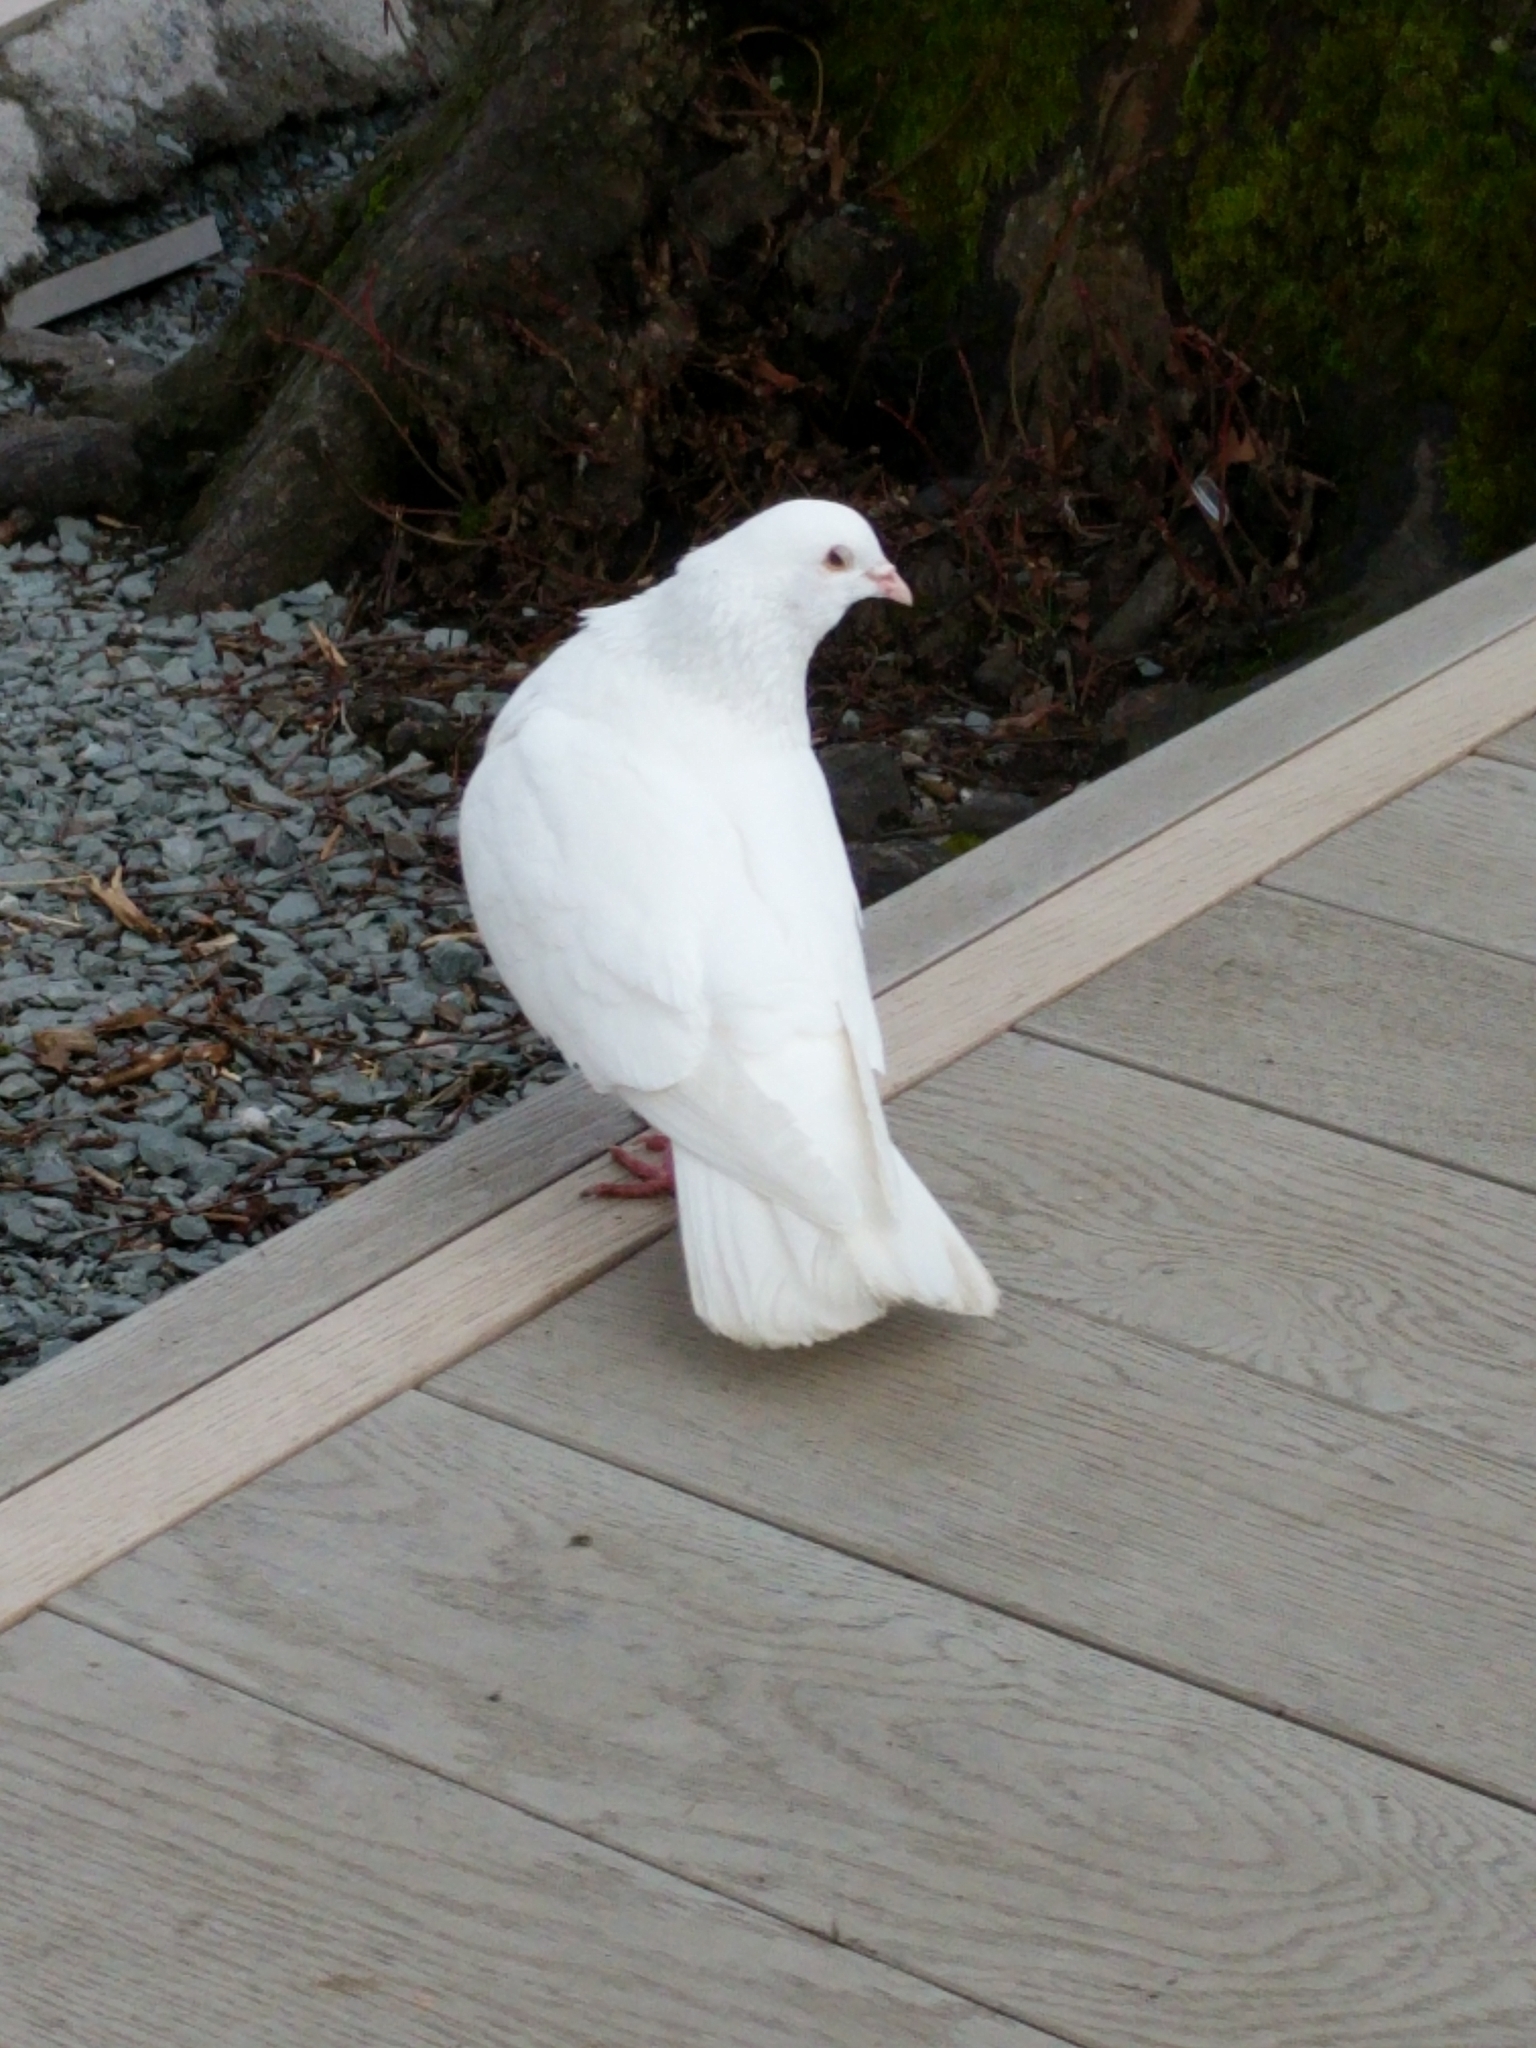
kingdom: Animalia
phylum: Chordata
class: Aves
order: Columbiformes
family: Columbidae
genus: Columba
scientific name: Columba livia
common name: Rock pigeon
